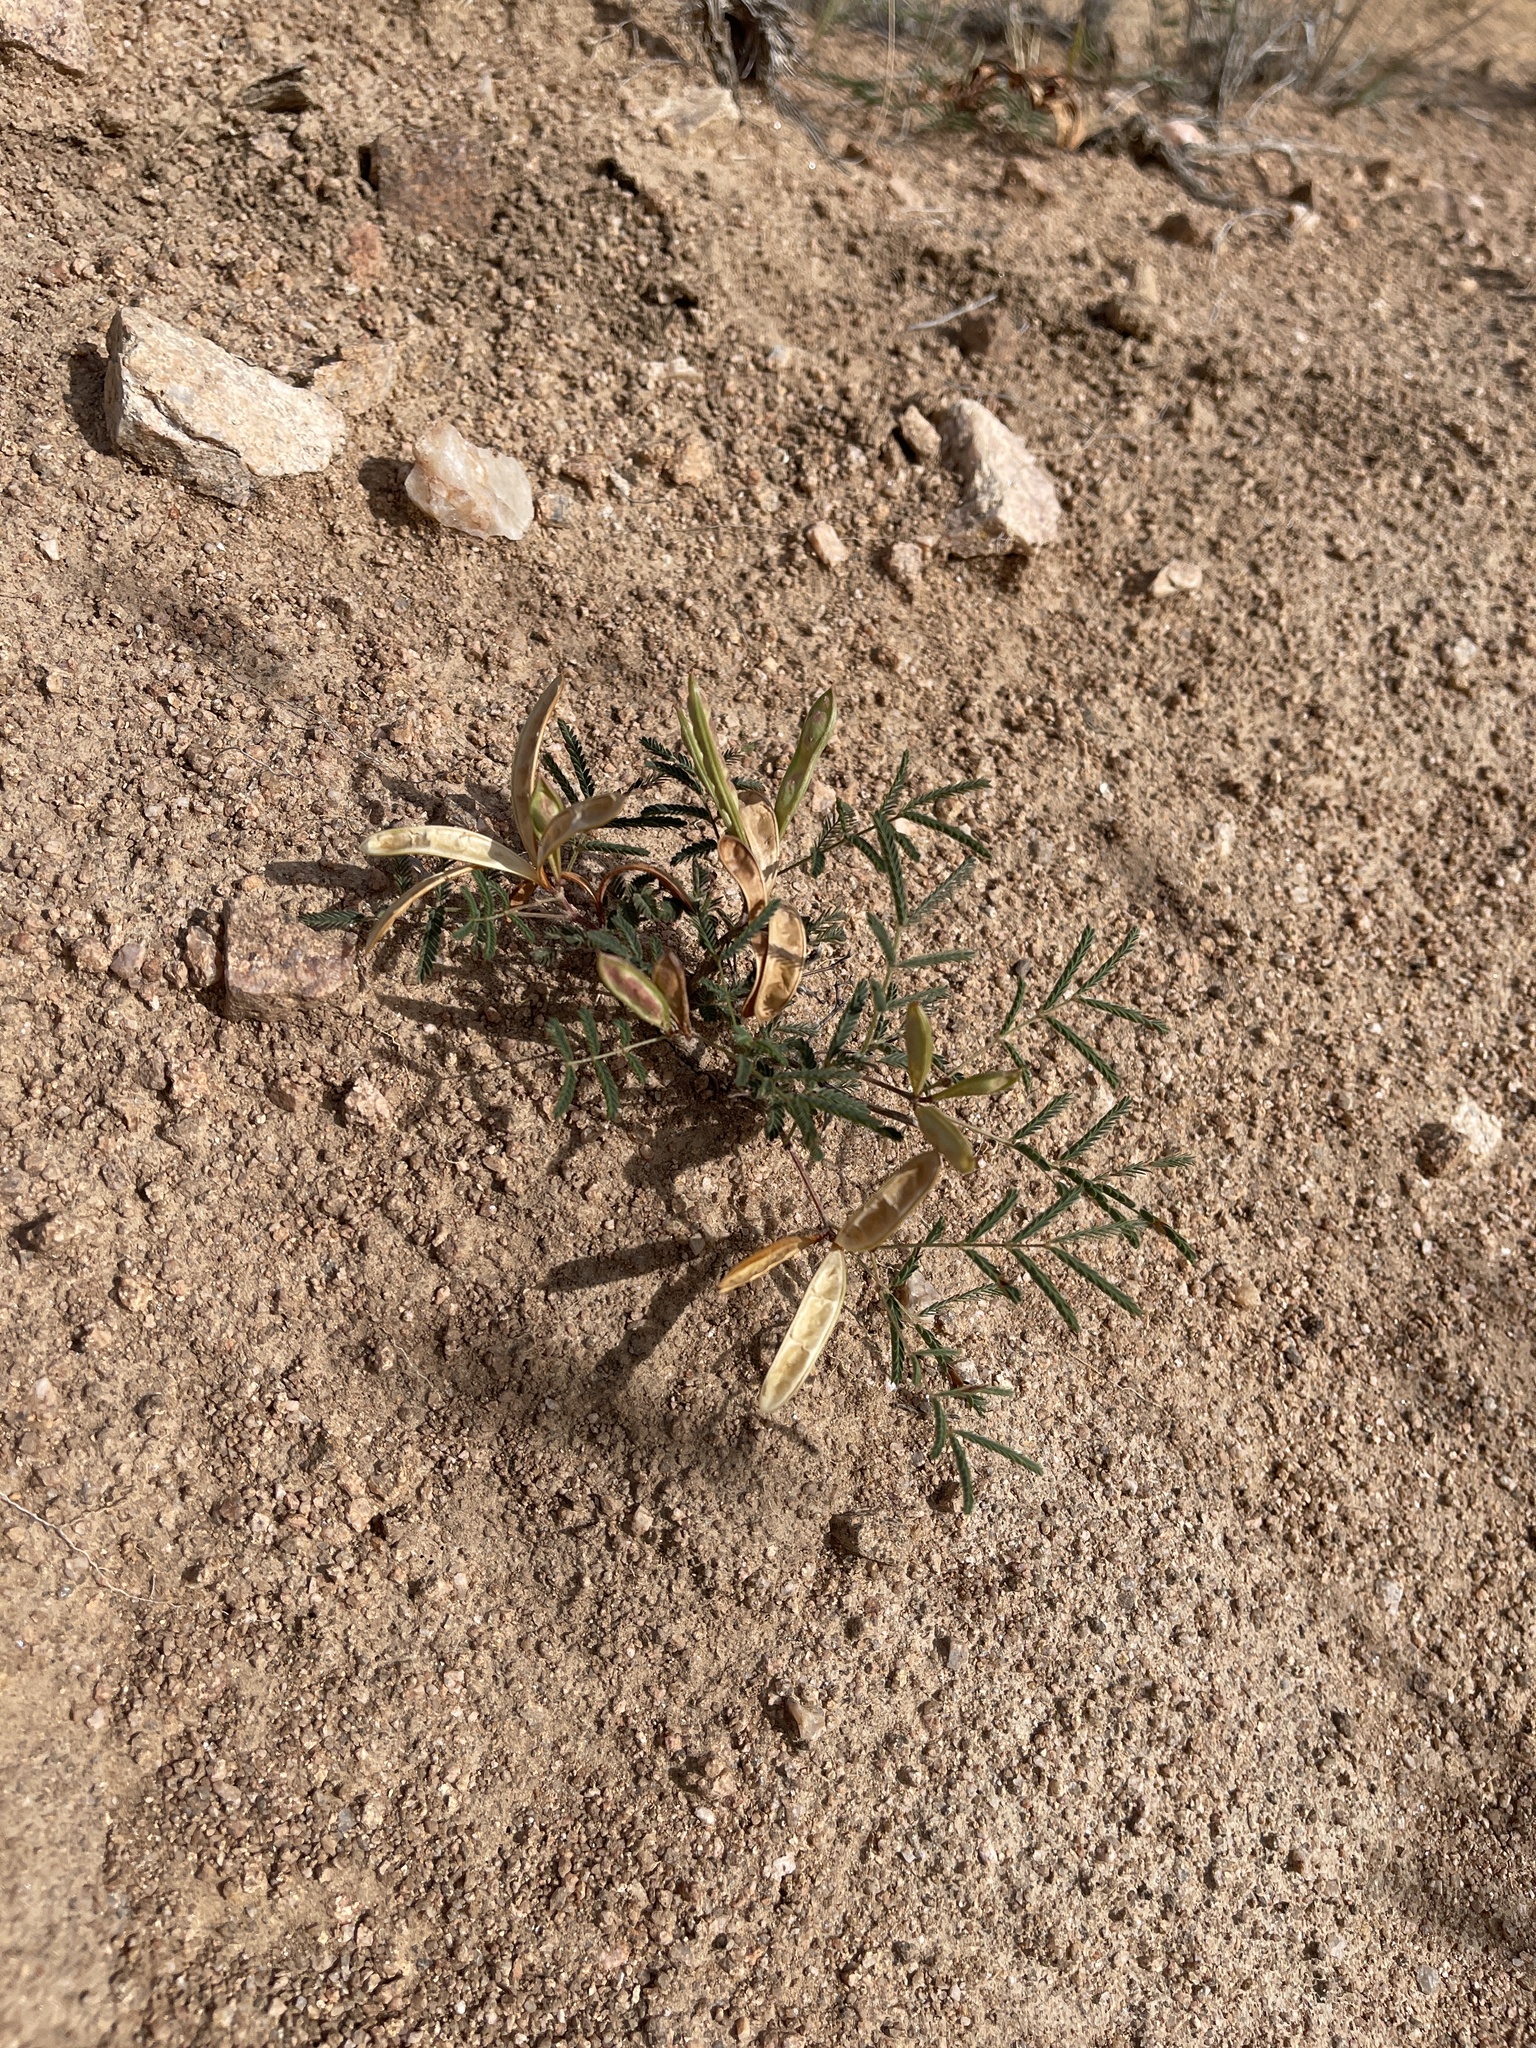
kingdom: Plantae
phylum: Tracheophyta
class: Magnoliopsida
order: Fabales
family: Fabaceae
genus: Calliandra
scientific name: Calliandra humilis
